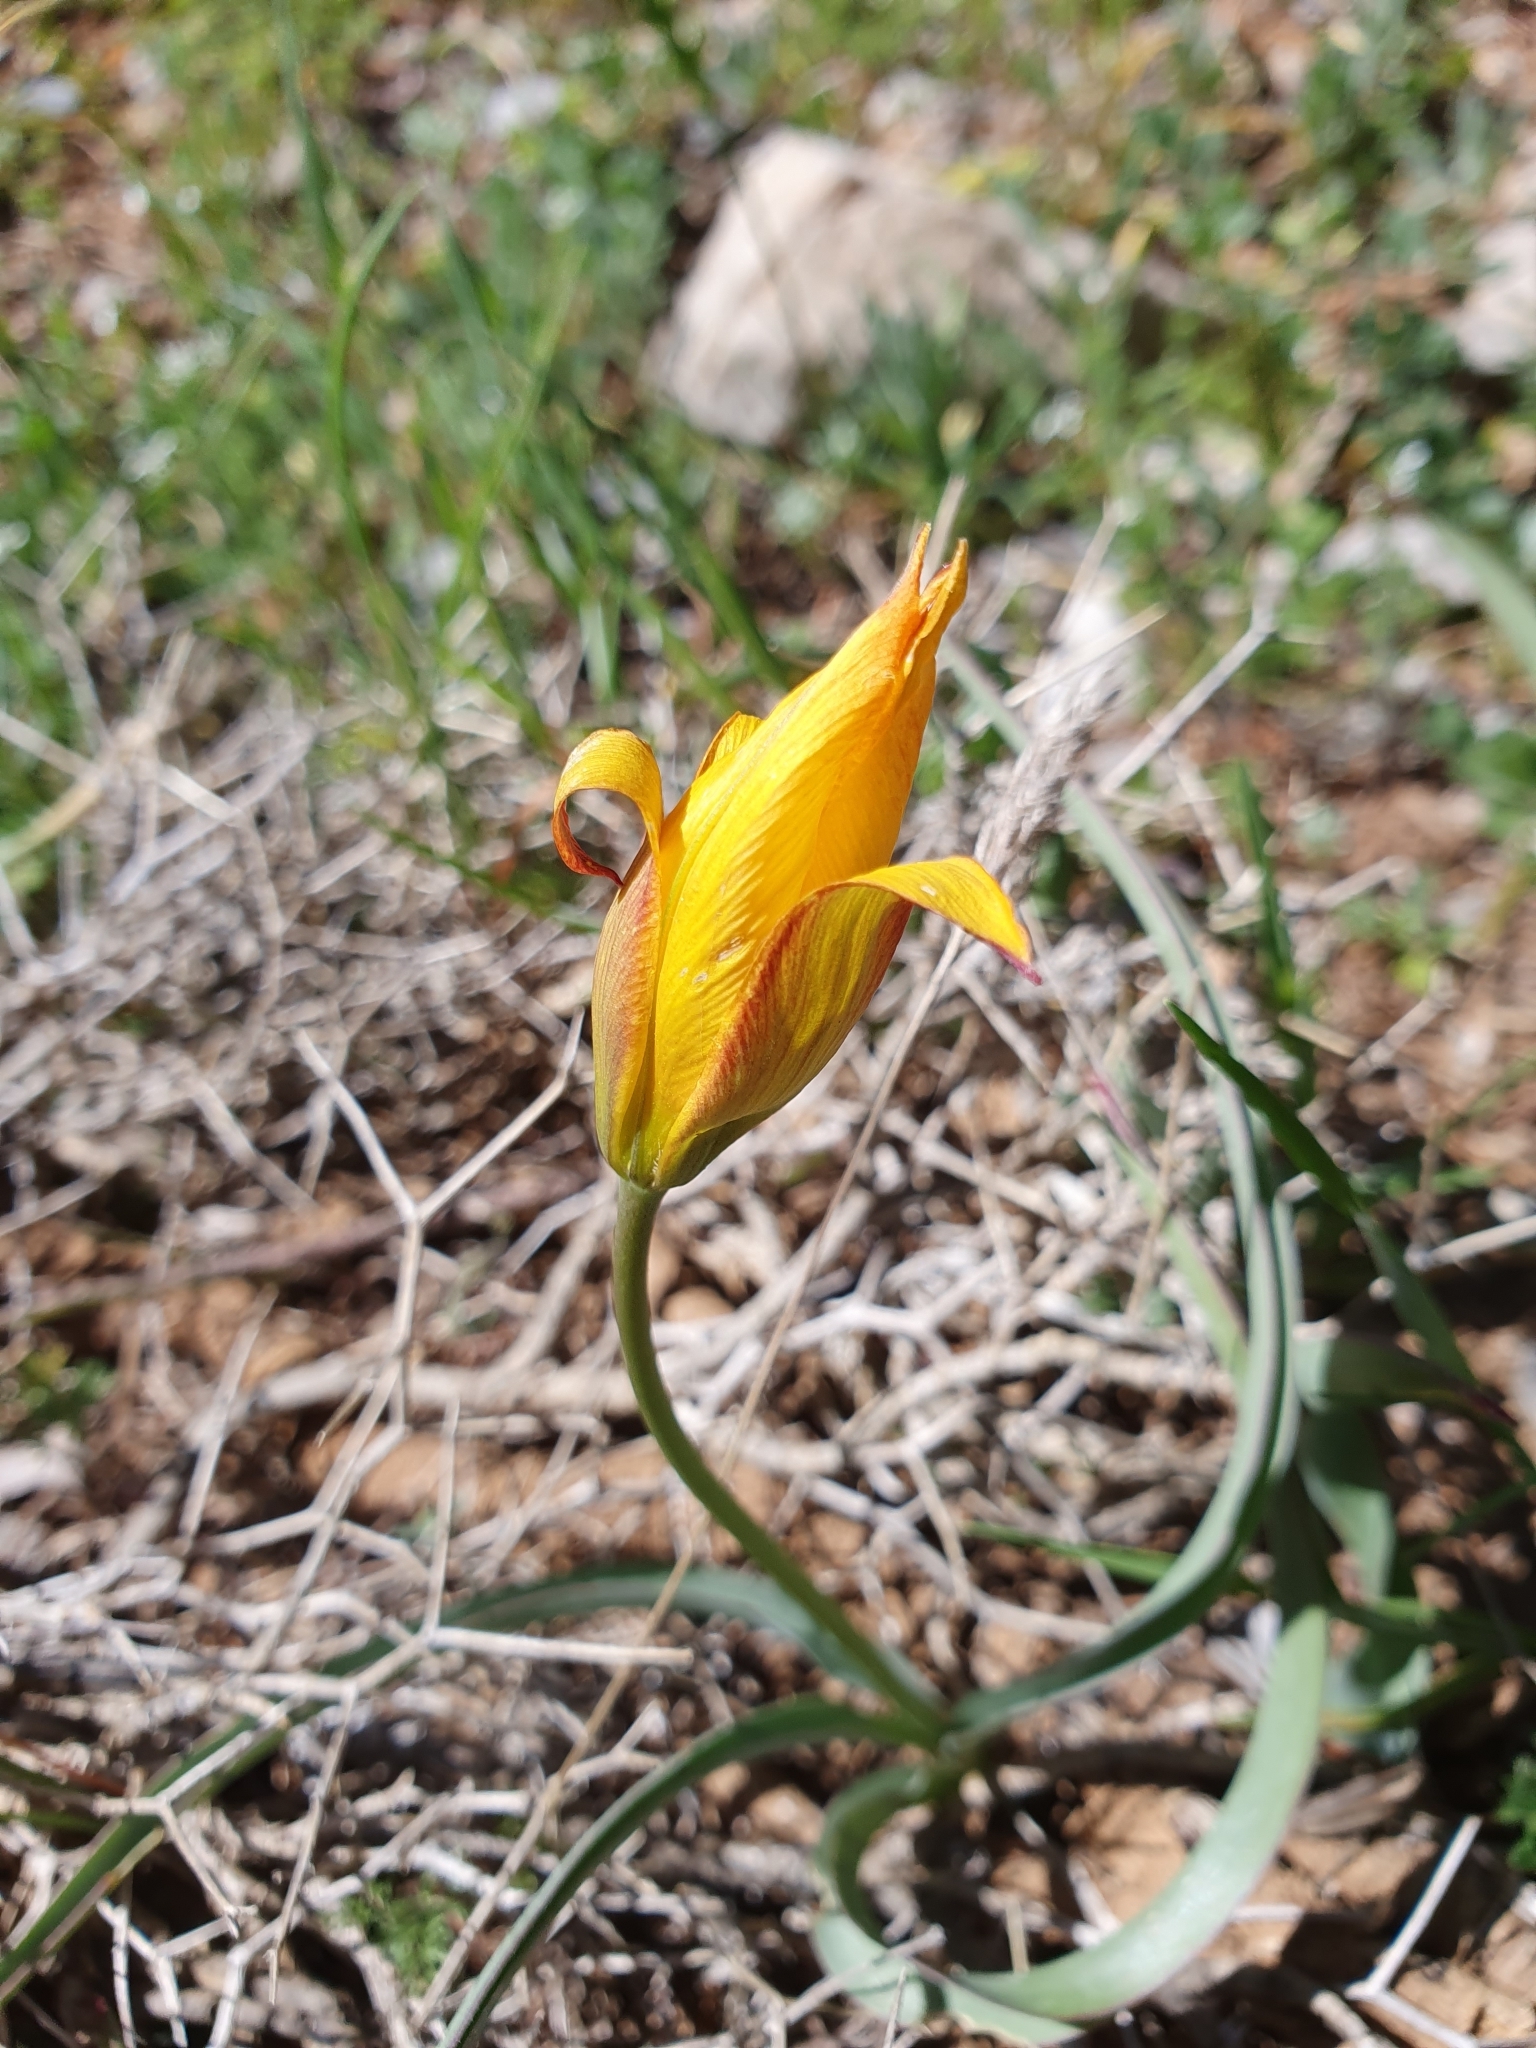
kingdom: Plantae
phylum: Tracheophyta
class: Liliopsida
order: Liliales
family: Liliaceae
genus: Tulipa
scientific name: Tulipa sylvestris
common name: Wild tulip
